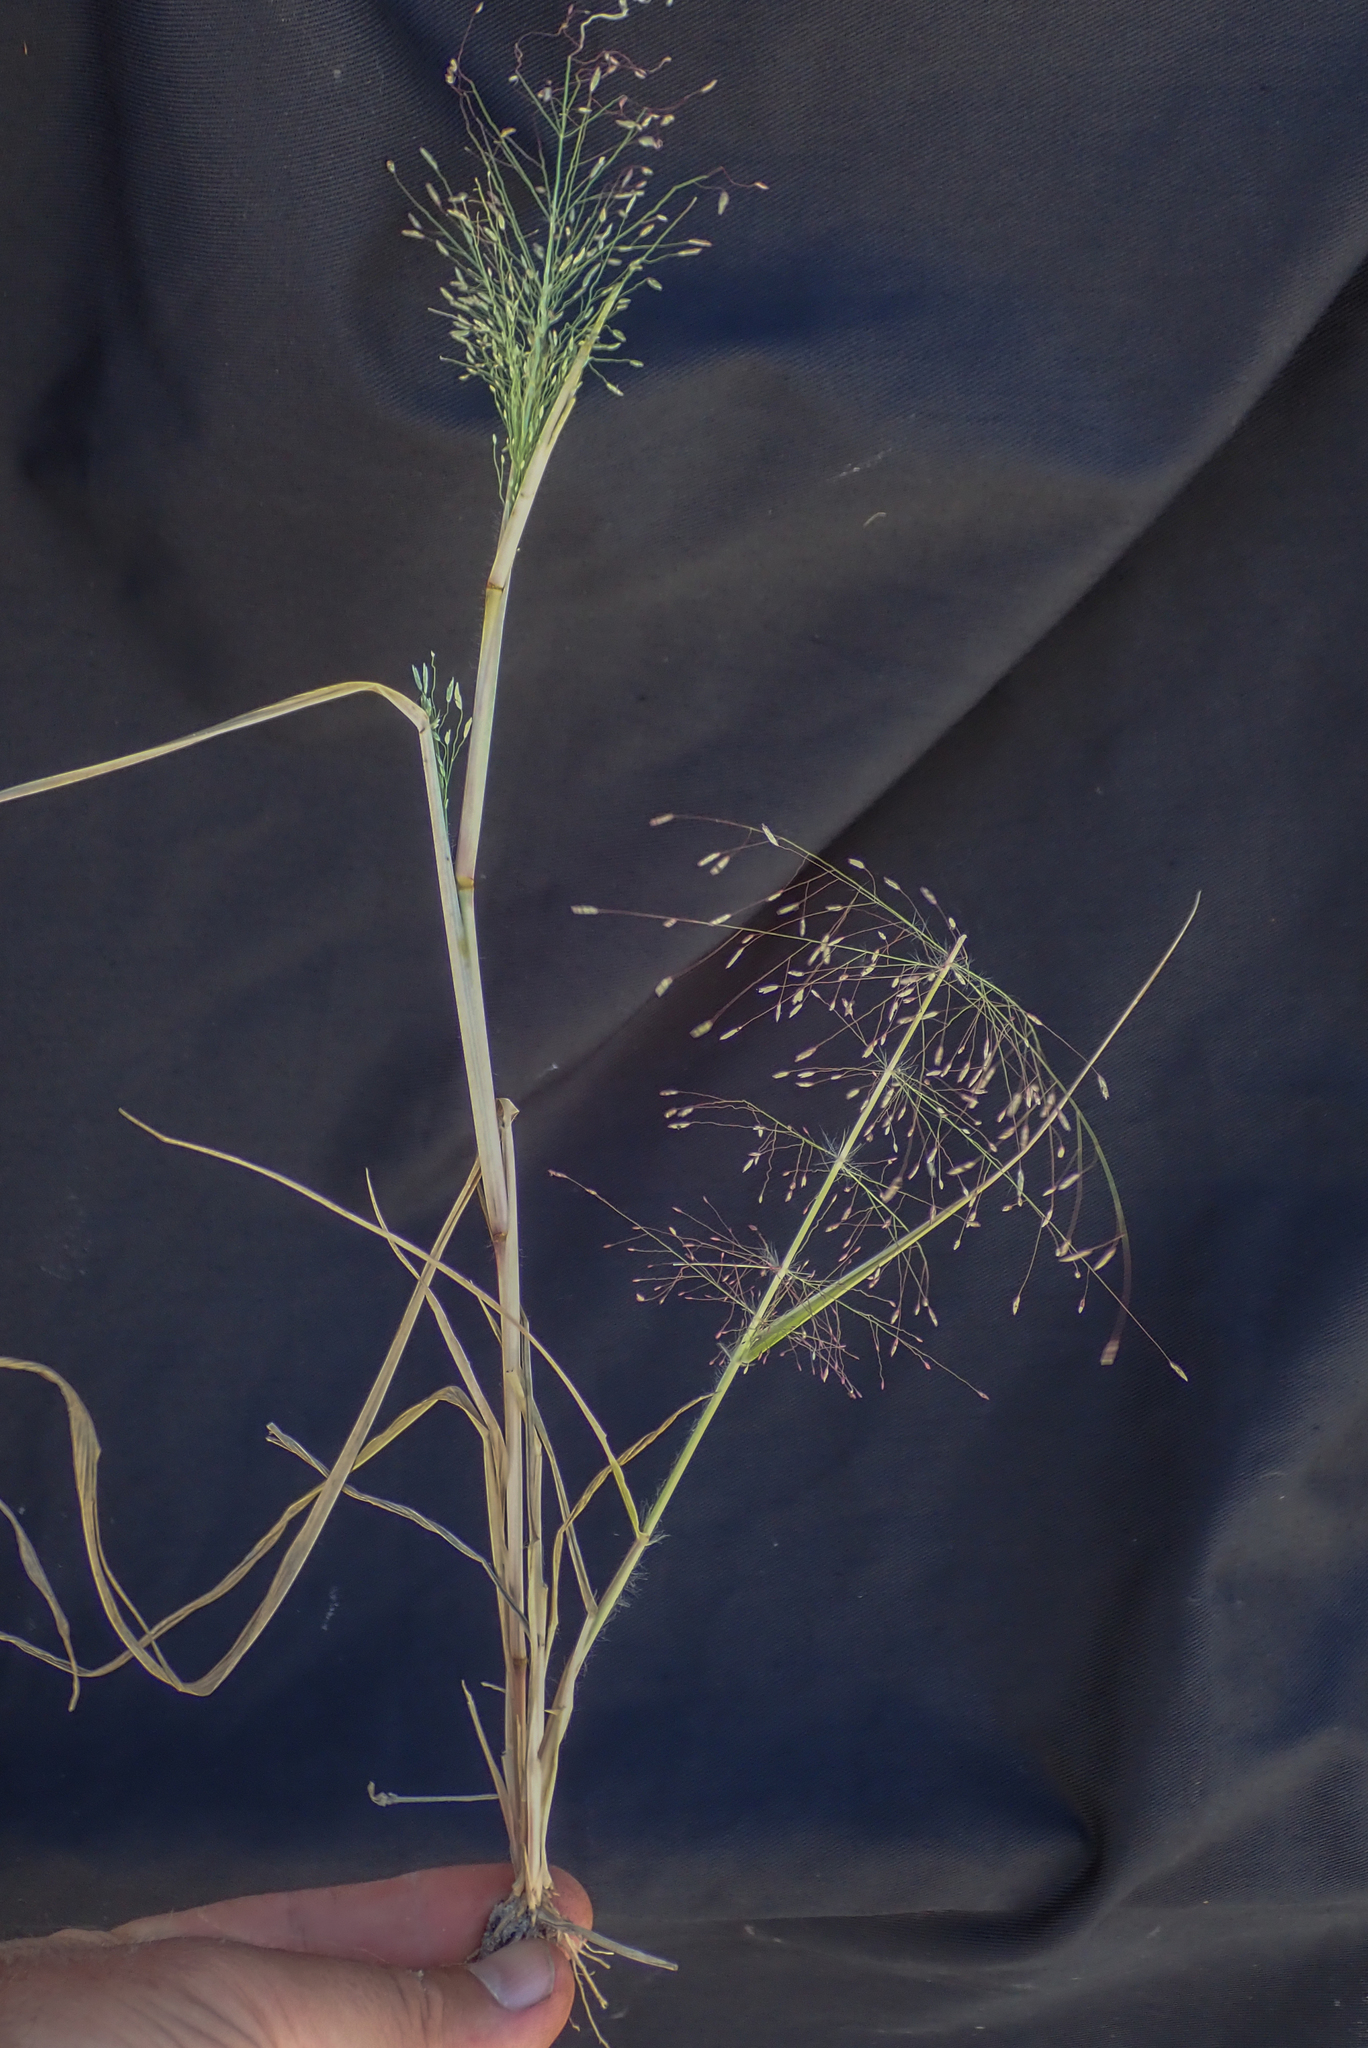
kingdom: Plantae
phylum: Tracheophyta
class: Liliopsida
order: Poales
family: Poaceae
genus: Eragrostis
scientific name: Eragrostis pilosa
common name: Indian lovegrass
